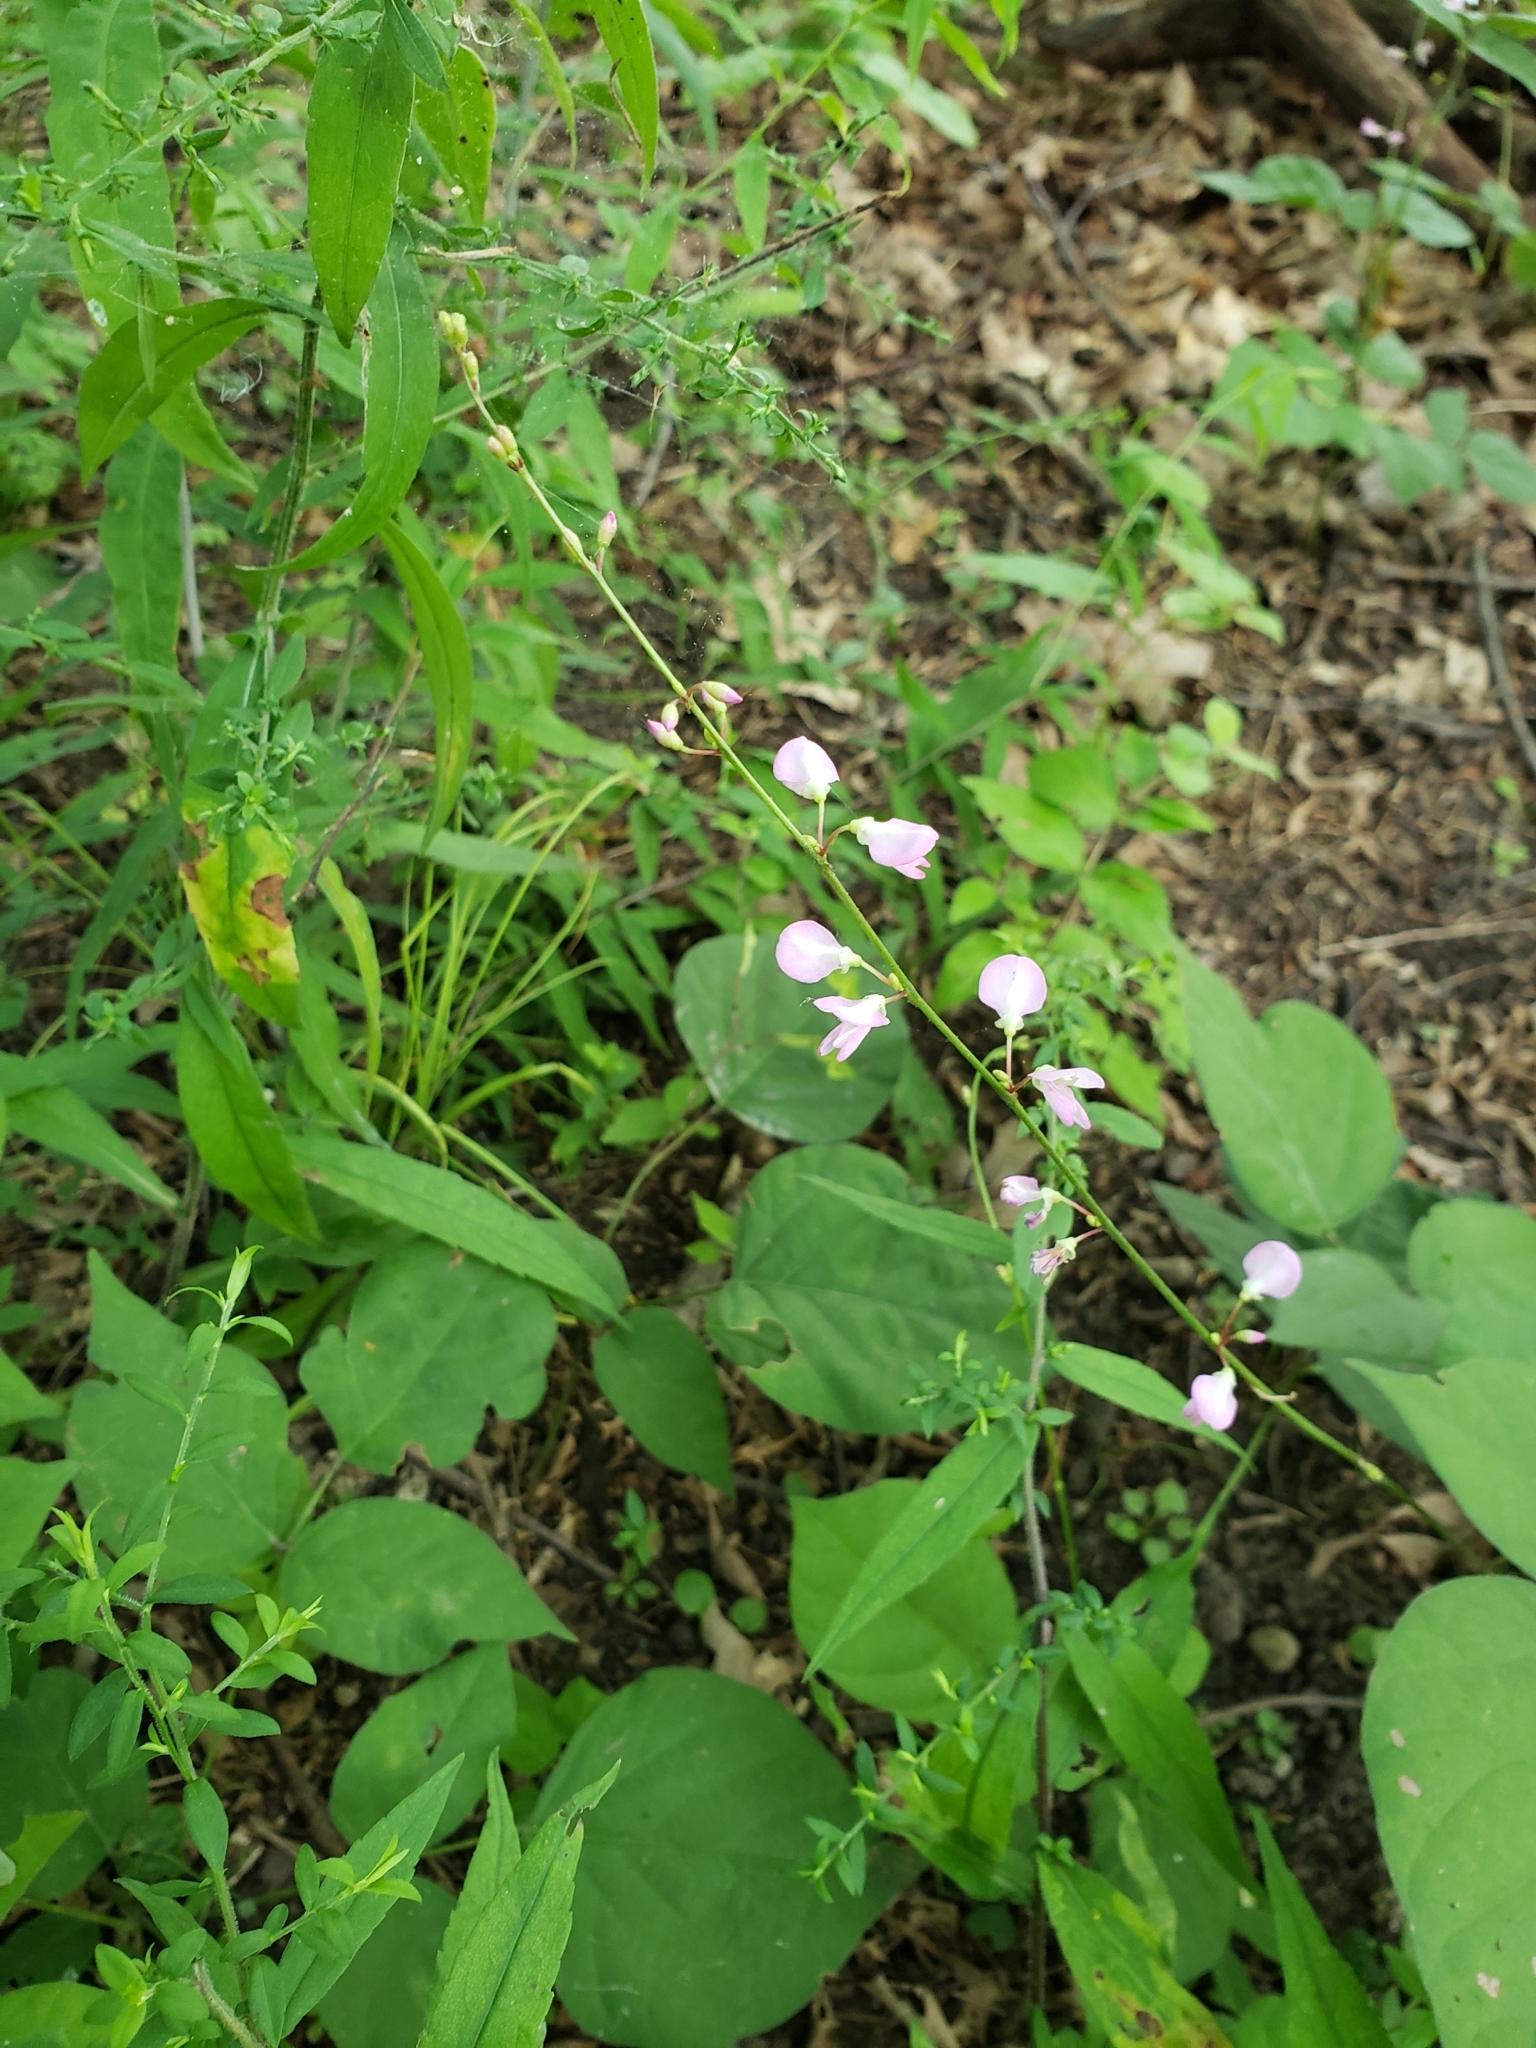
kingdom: Plantae
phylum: Tracheophyta
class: Magnoliopsida
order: Fabales
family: Fabaceae
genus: Hylodesmum
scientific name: Hylodesmum glutinosum
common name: Clustered-leaved tick-trefoil
